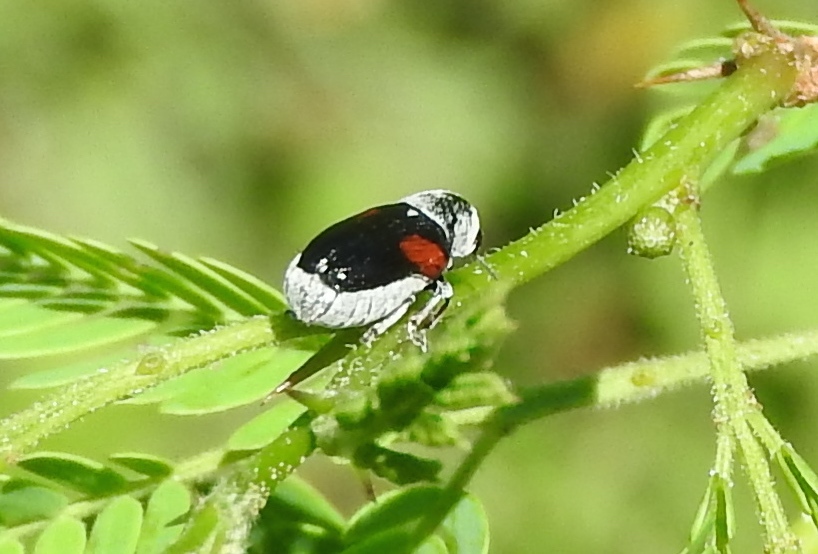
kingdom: Animalia
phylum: Arthropoda
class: Insecta
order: Coleoptera
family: Chrysomelidae
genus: Coleorozena
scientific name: Coleorozena pilatei
